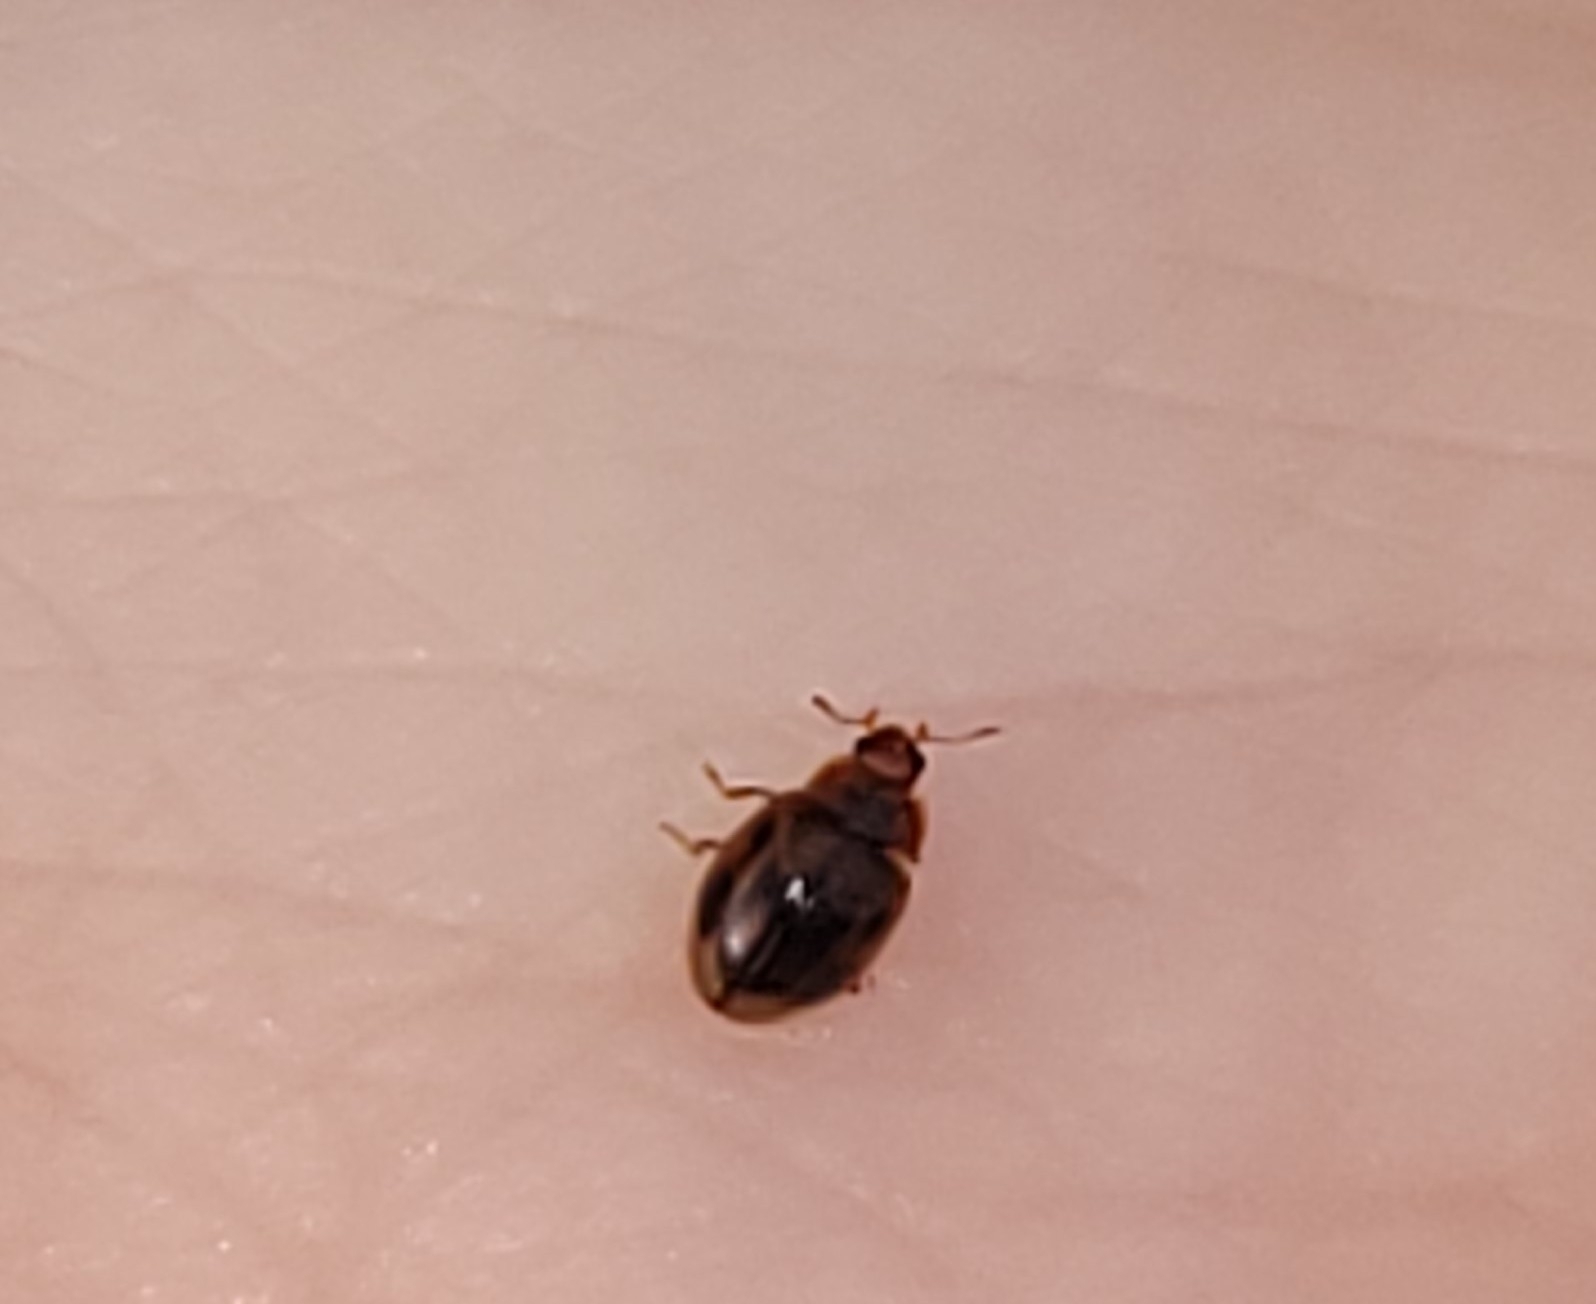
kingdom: Animalia
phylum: Arthropoda
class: Insecta
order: Coleoptera
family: Coccinellidae
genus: Rhyzobius
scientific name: Rhyzobius chrysomeloides
